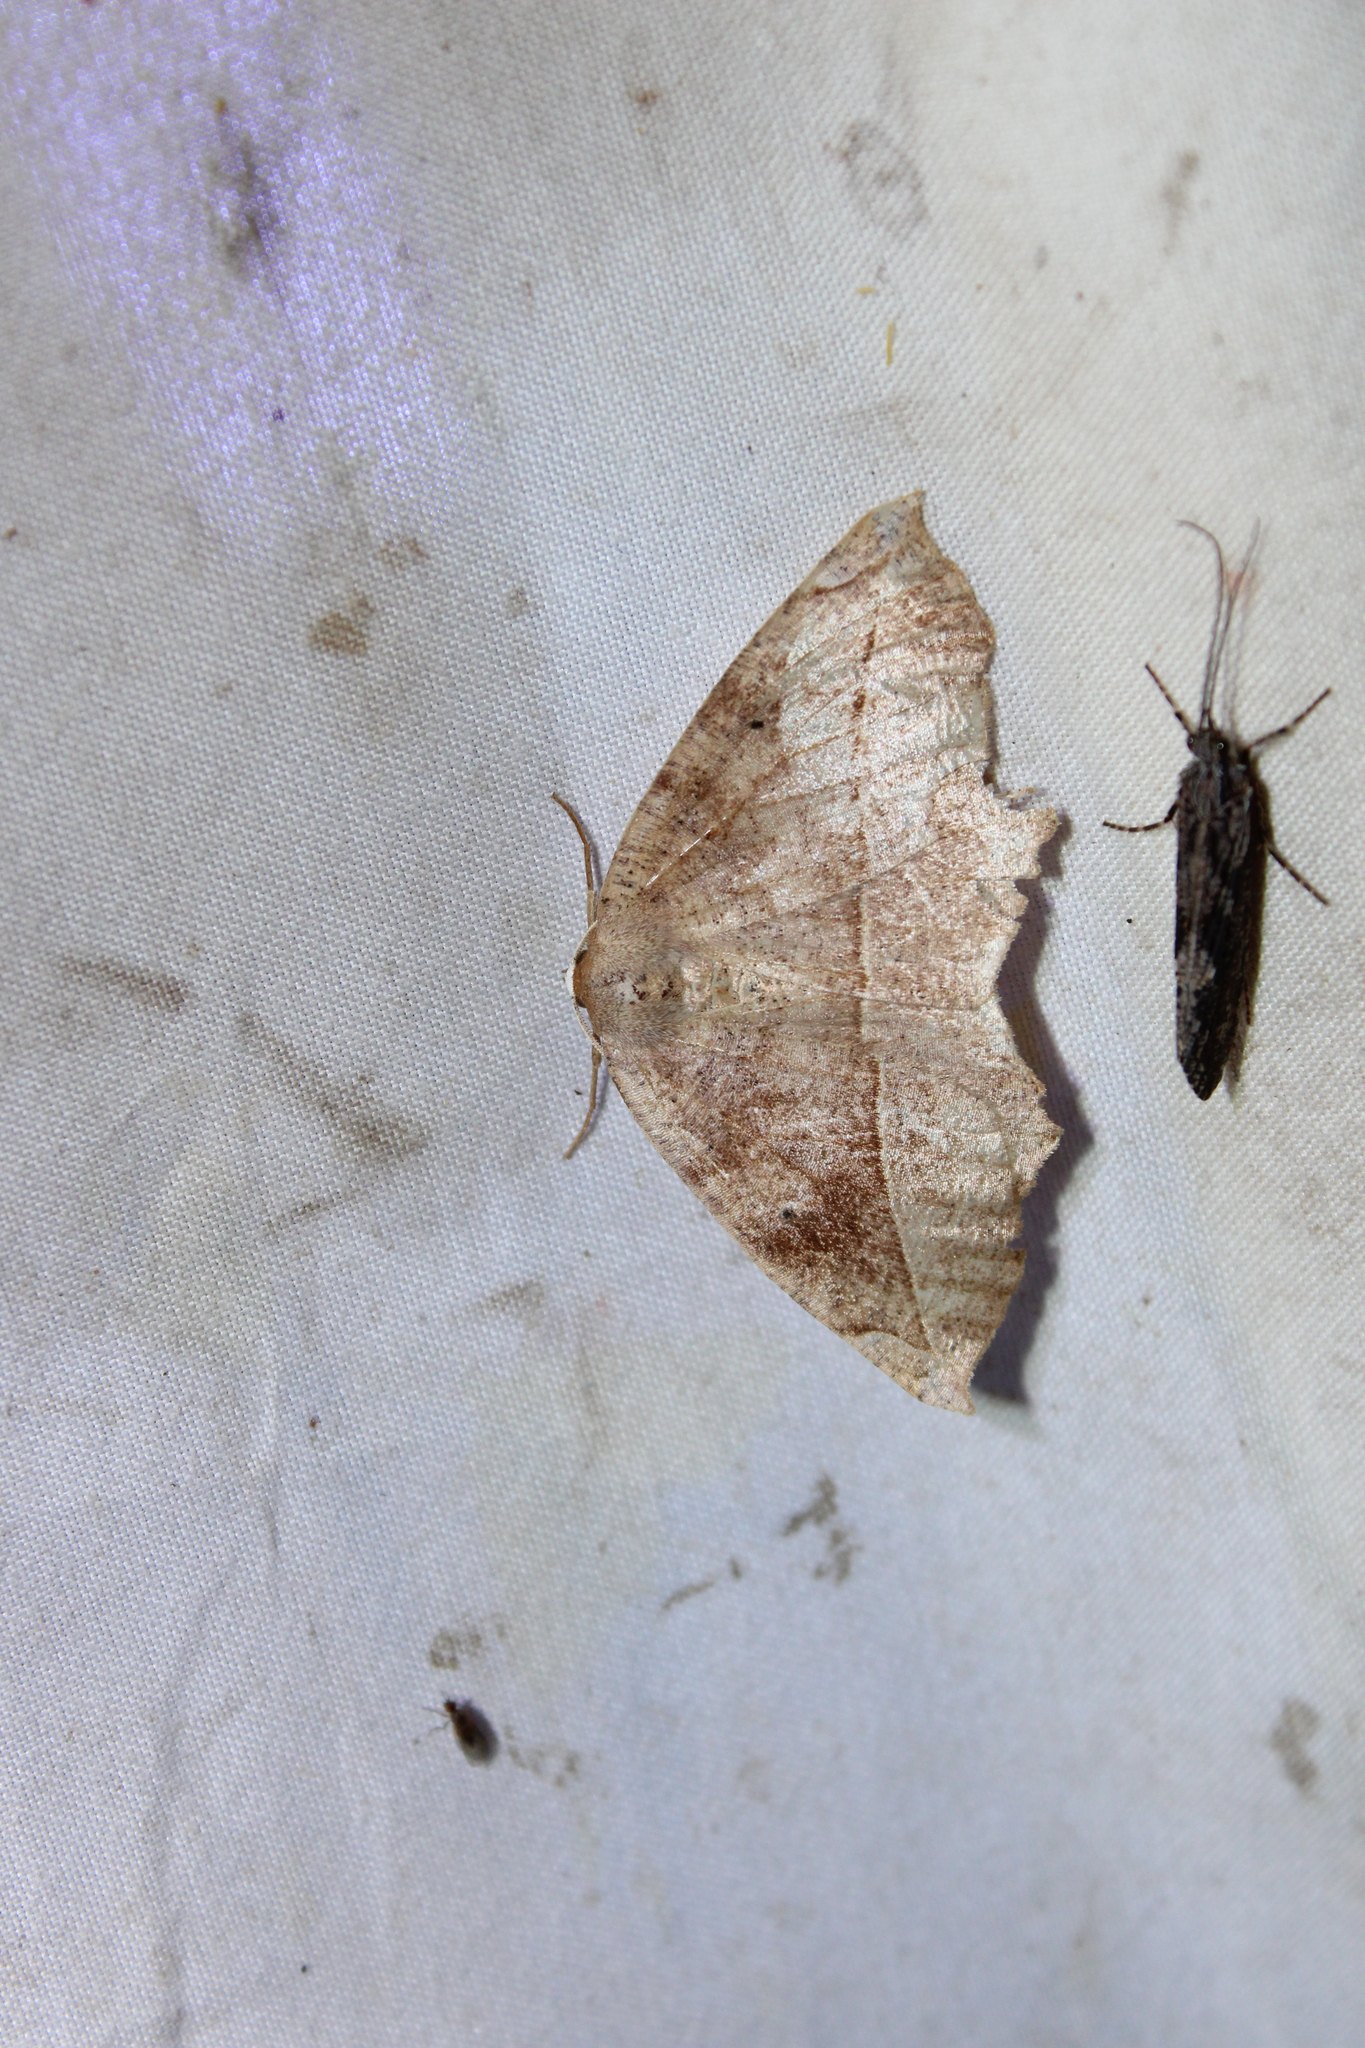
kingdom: Animalia
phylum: Arthropoda
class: Insecta
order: Lepidoptera
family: Geometridae
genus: Eutrapela
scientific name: Eutrapela clemataria
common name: Curved-toothed geometer
